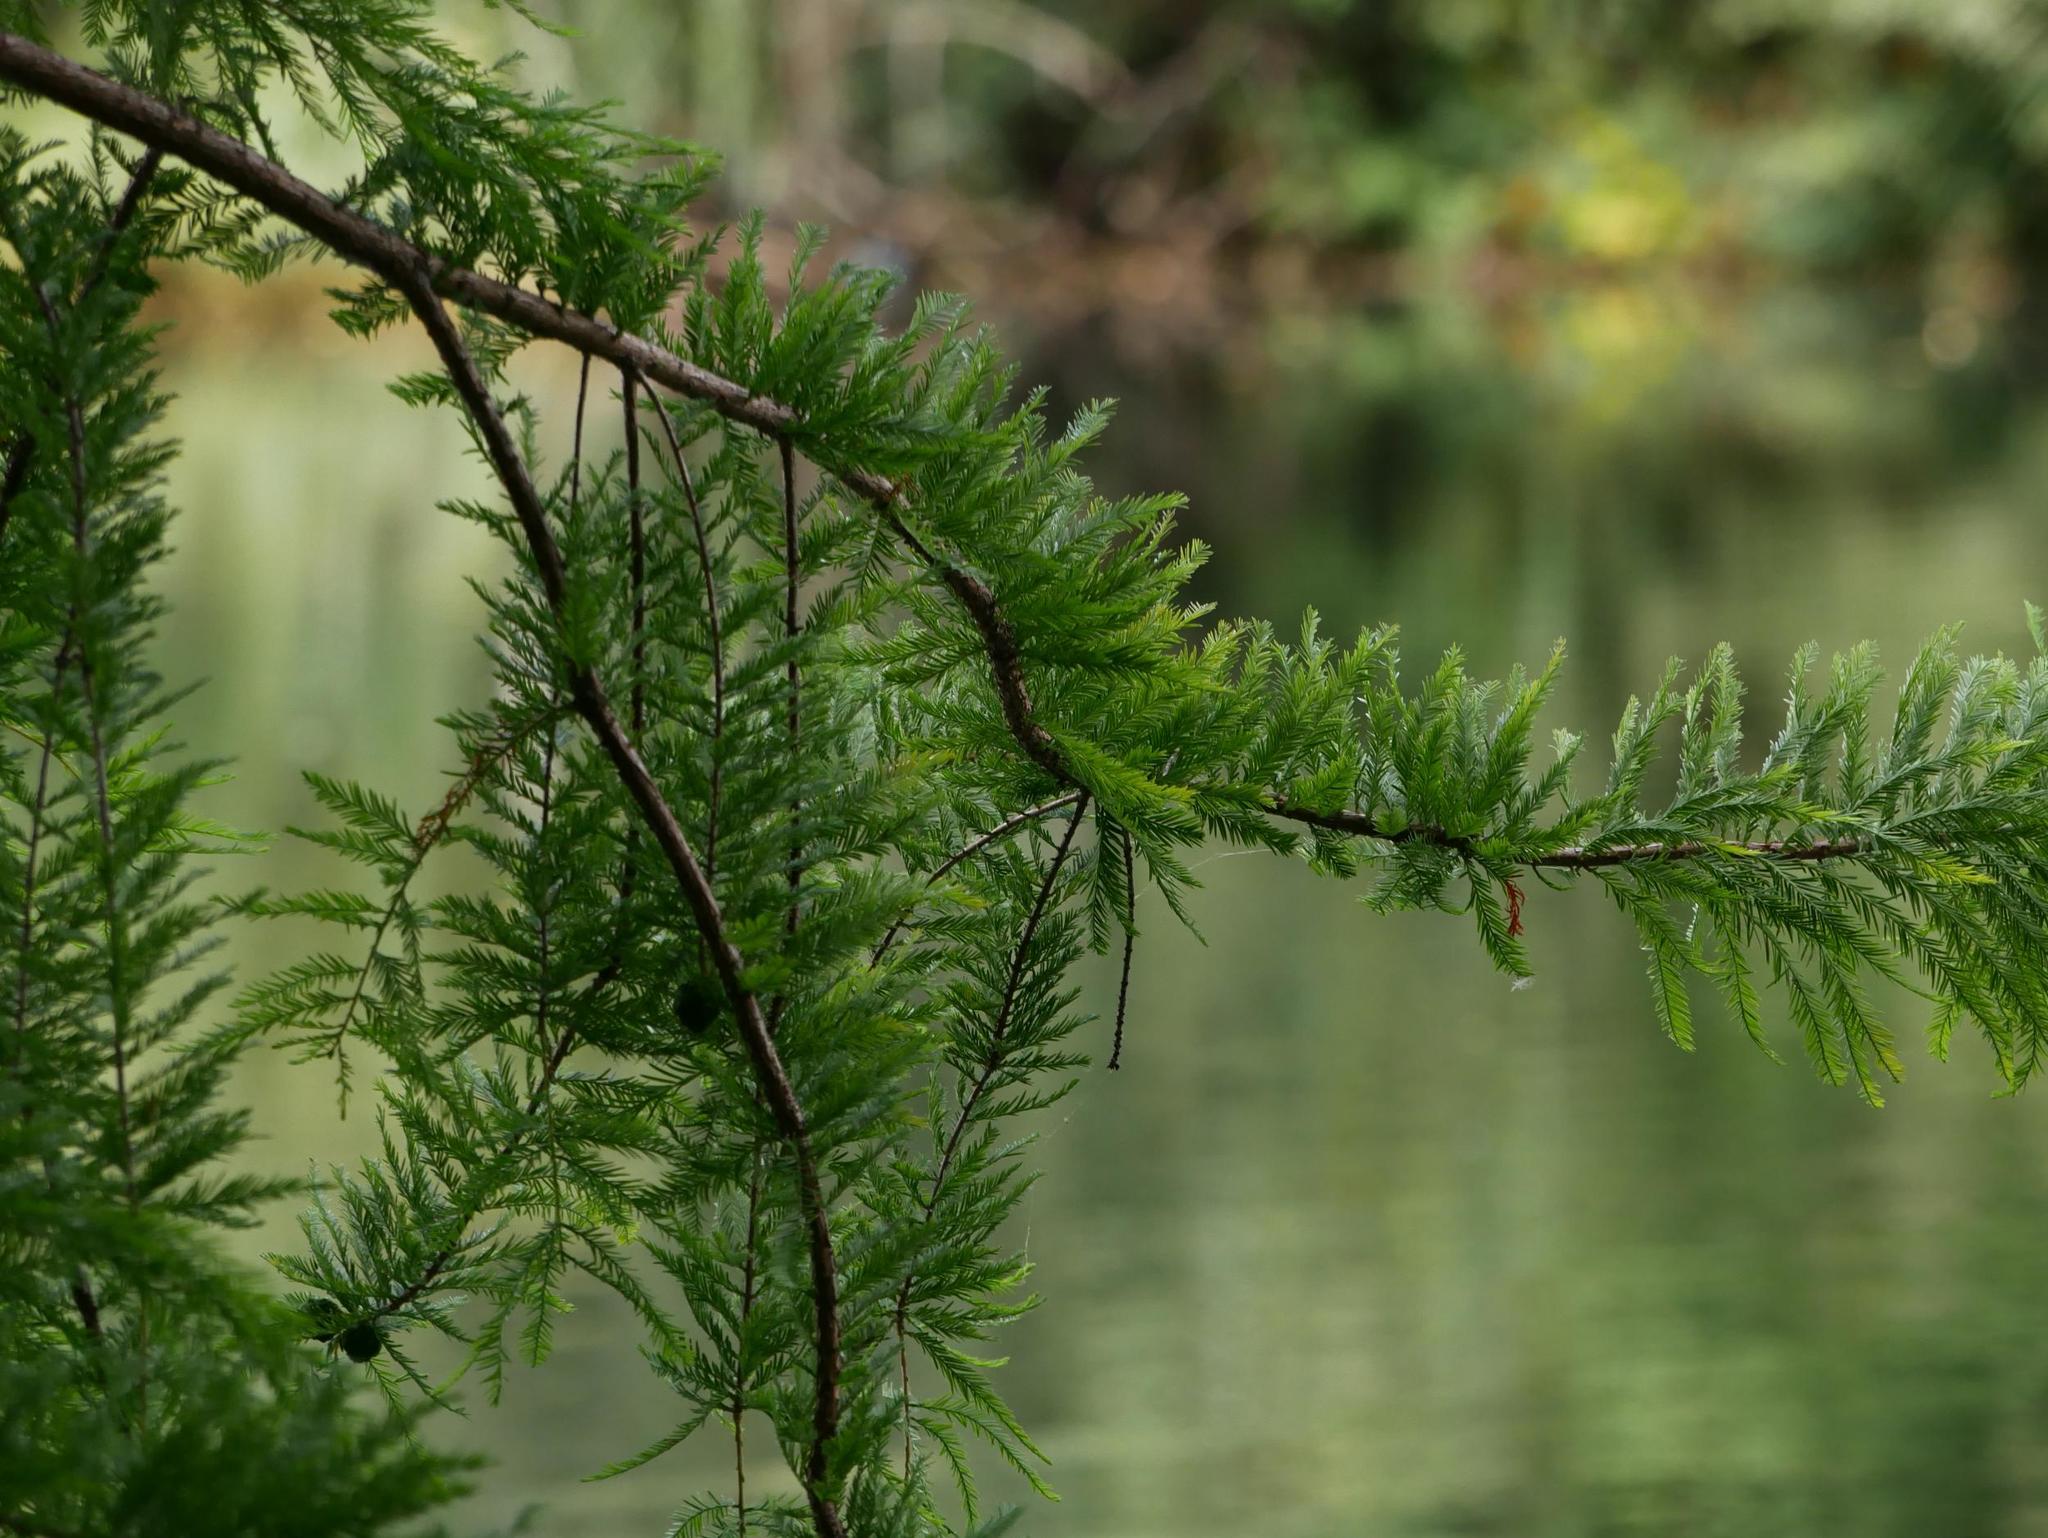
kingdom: Plantae
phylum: Tracheophyta
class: Pinopsida
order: Pinales
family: Pinaceae
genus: Larix
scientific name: Larix decidua
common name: European larch
